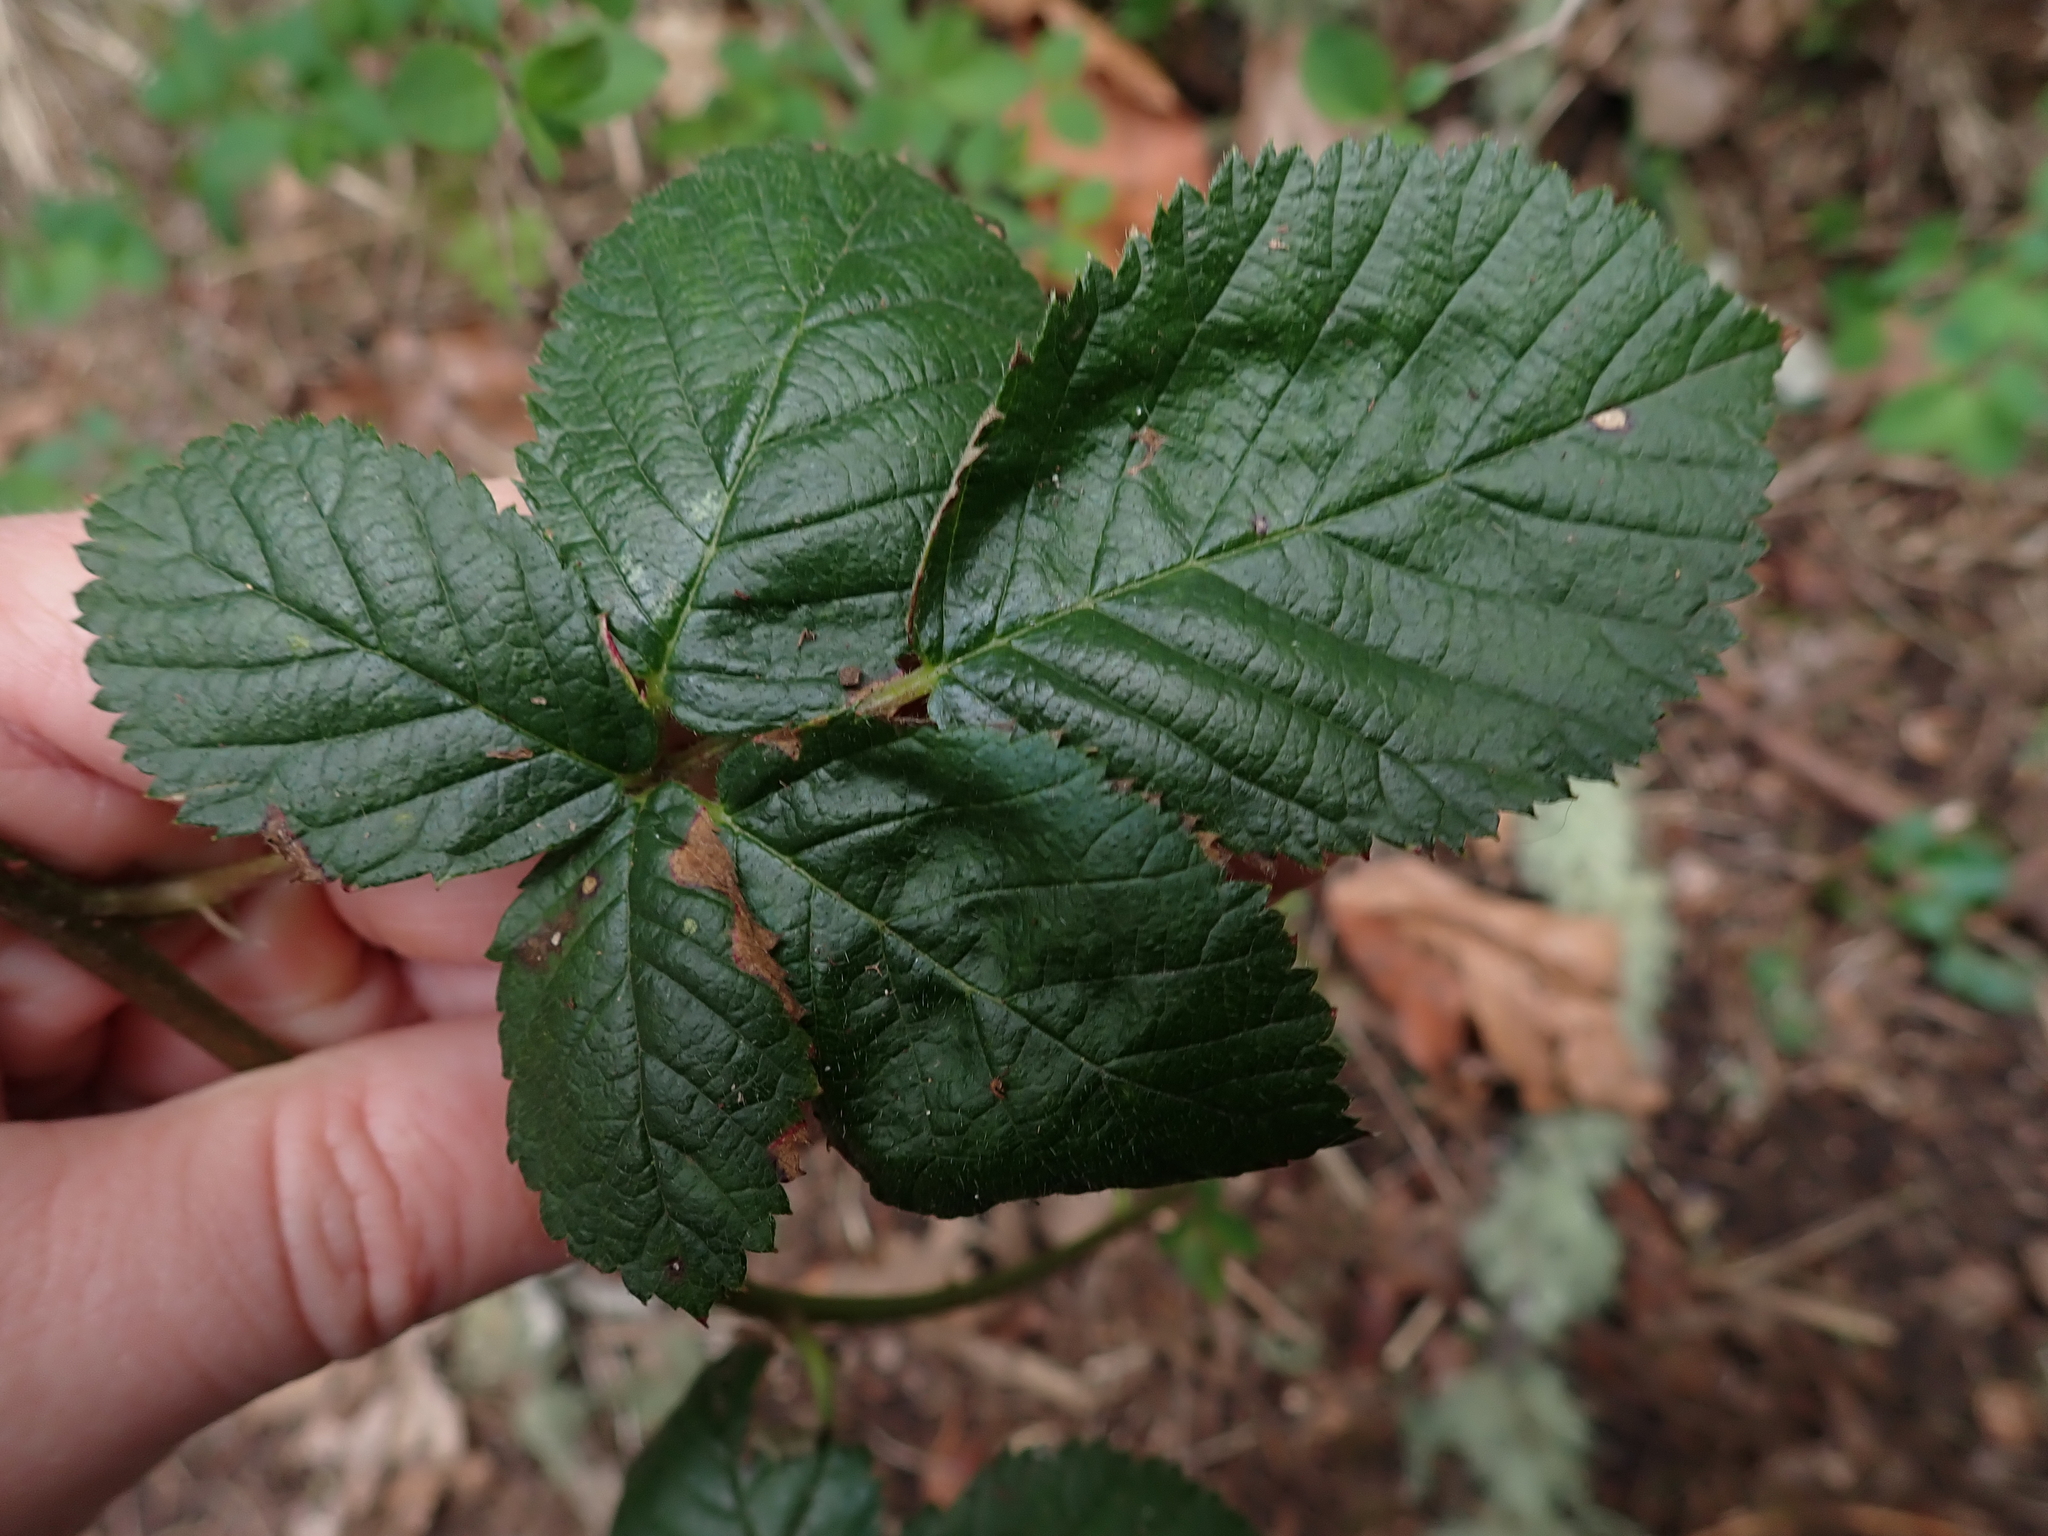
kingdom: Plantae
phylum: Tracheophyta
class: Magnoliopsida
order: Rosales
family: Rosaceae
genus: Rubus
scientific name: Rubus bifrons
